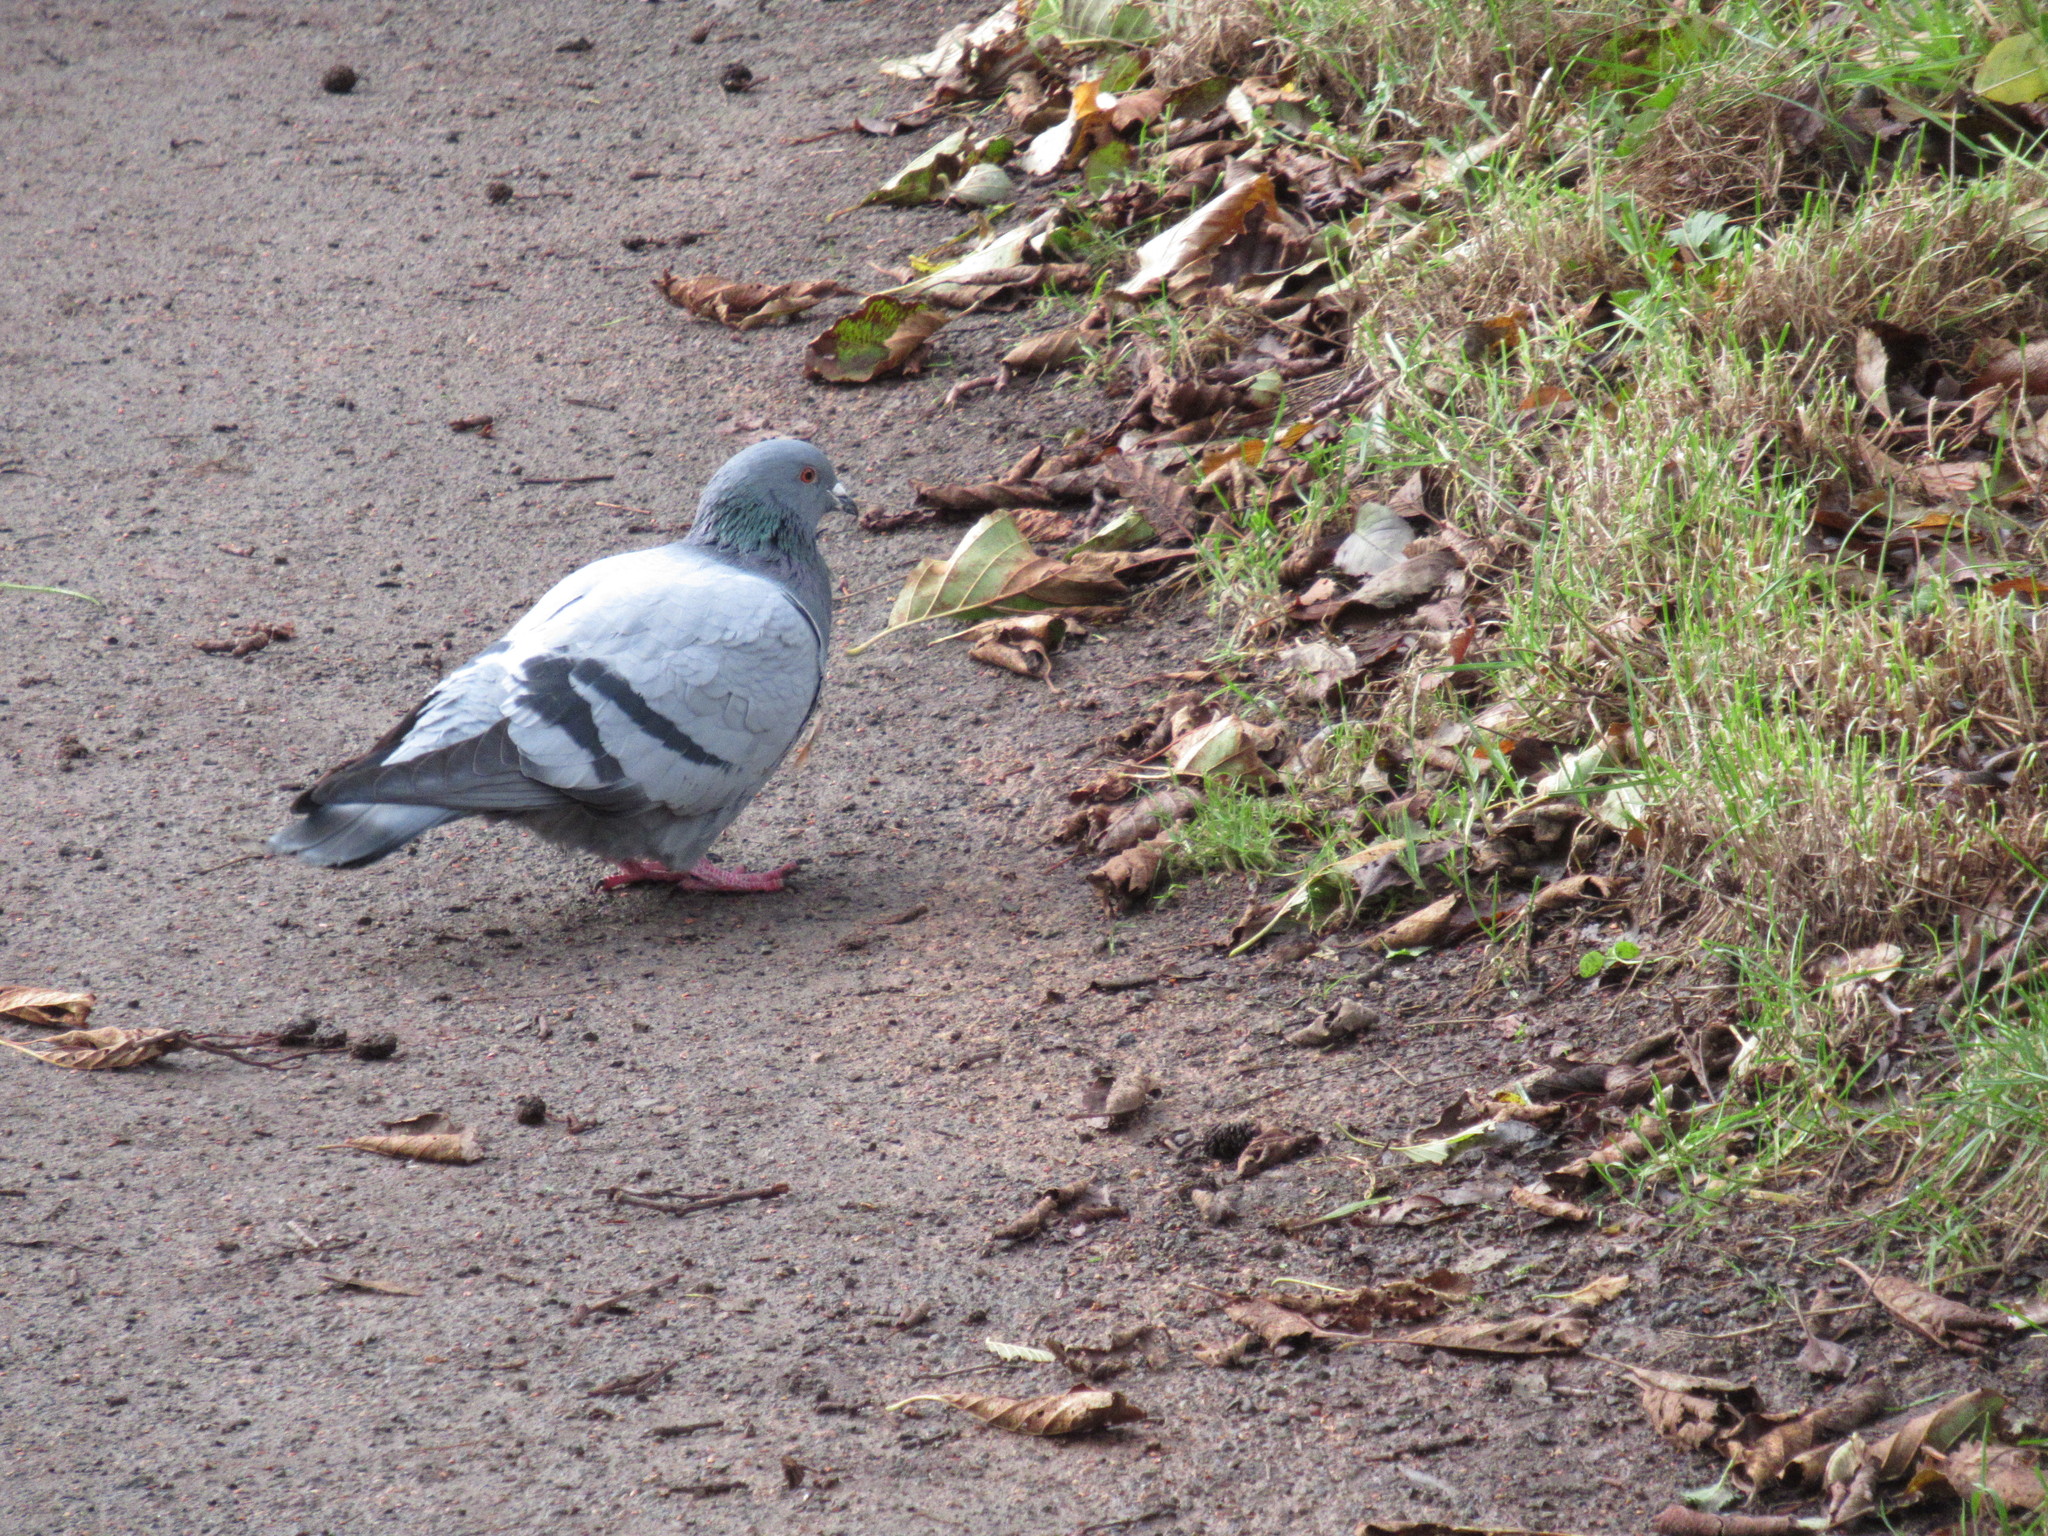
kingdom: Animalia
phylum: Chordata
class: Aves
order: Columbiformes
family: Columbidae
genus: Columba
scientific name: Columba livia
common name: Rock pigeon
